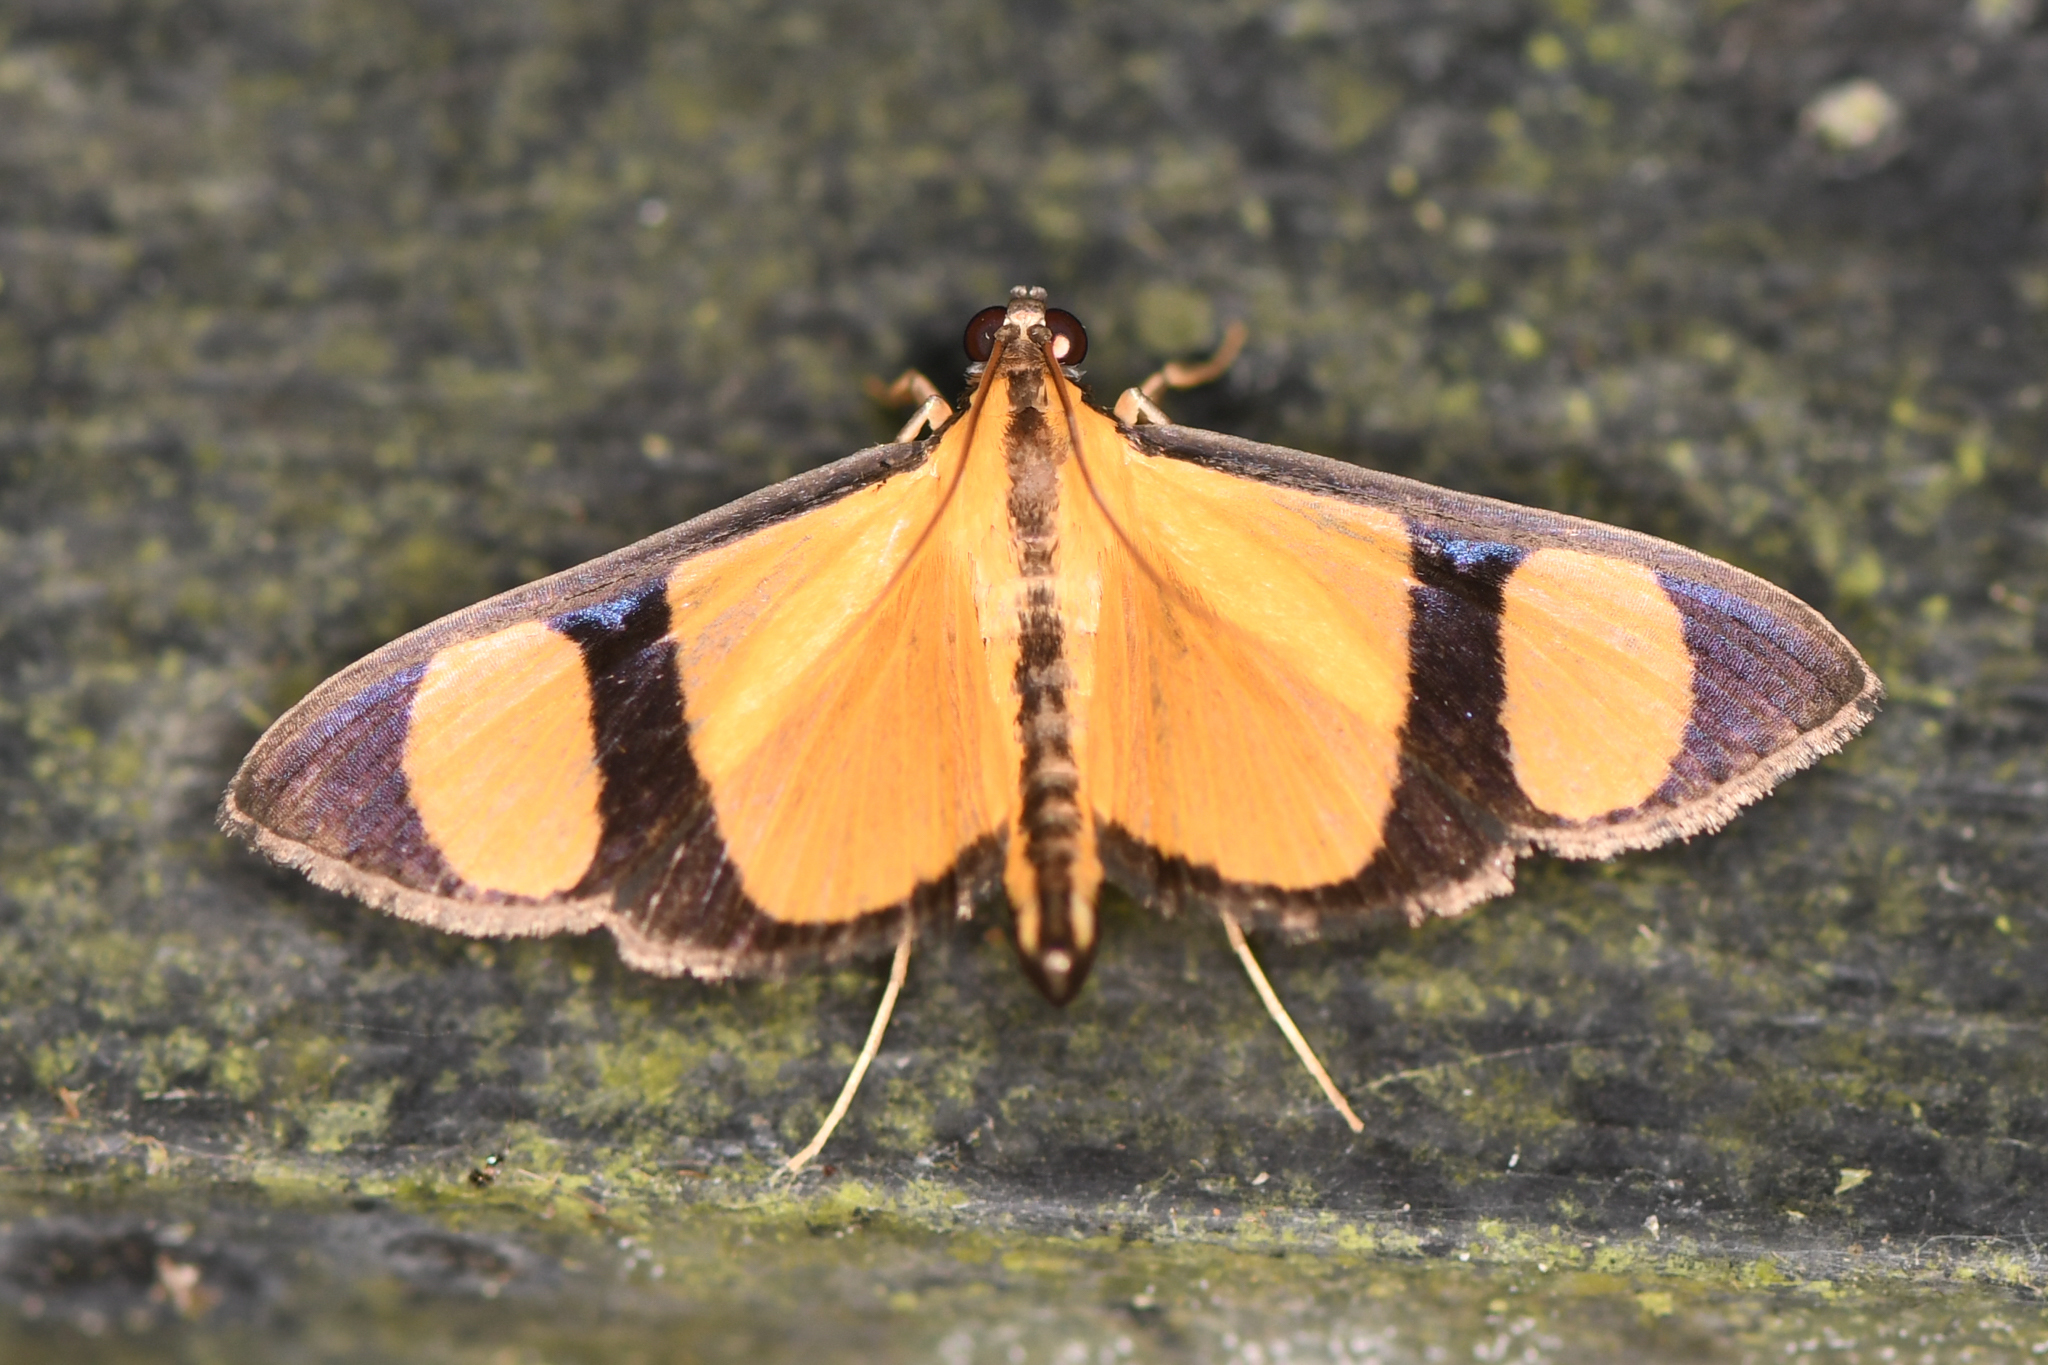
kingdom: Animalia
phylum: Arthropoda
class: Insecta
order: Lepidoptera
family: Crambidae
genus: Phostria
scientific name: Phostria delilalis
